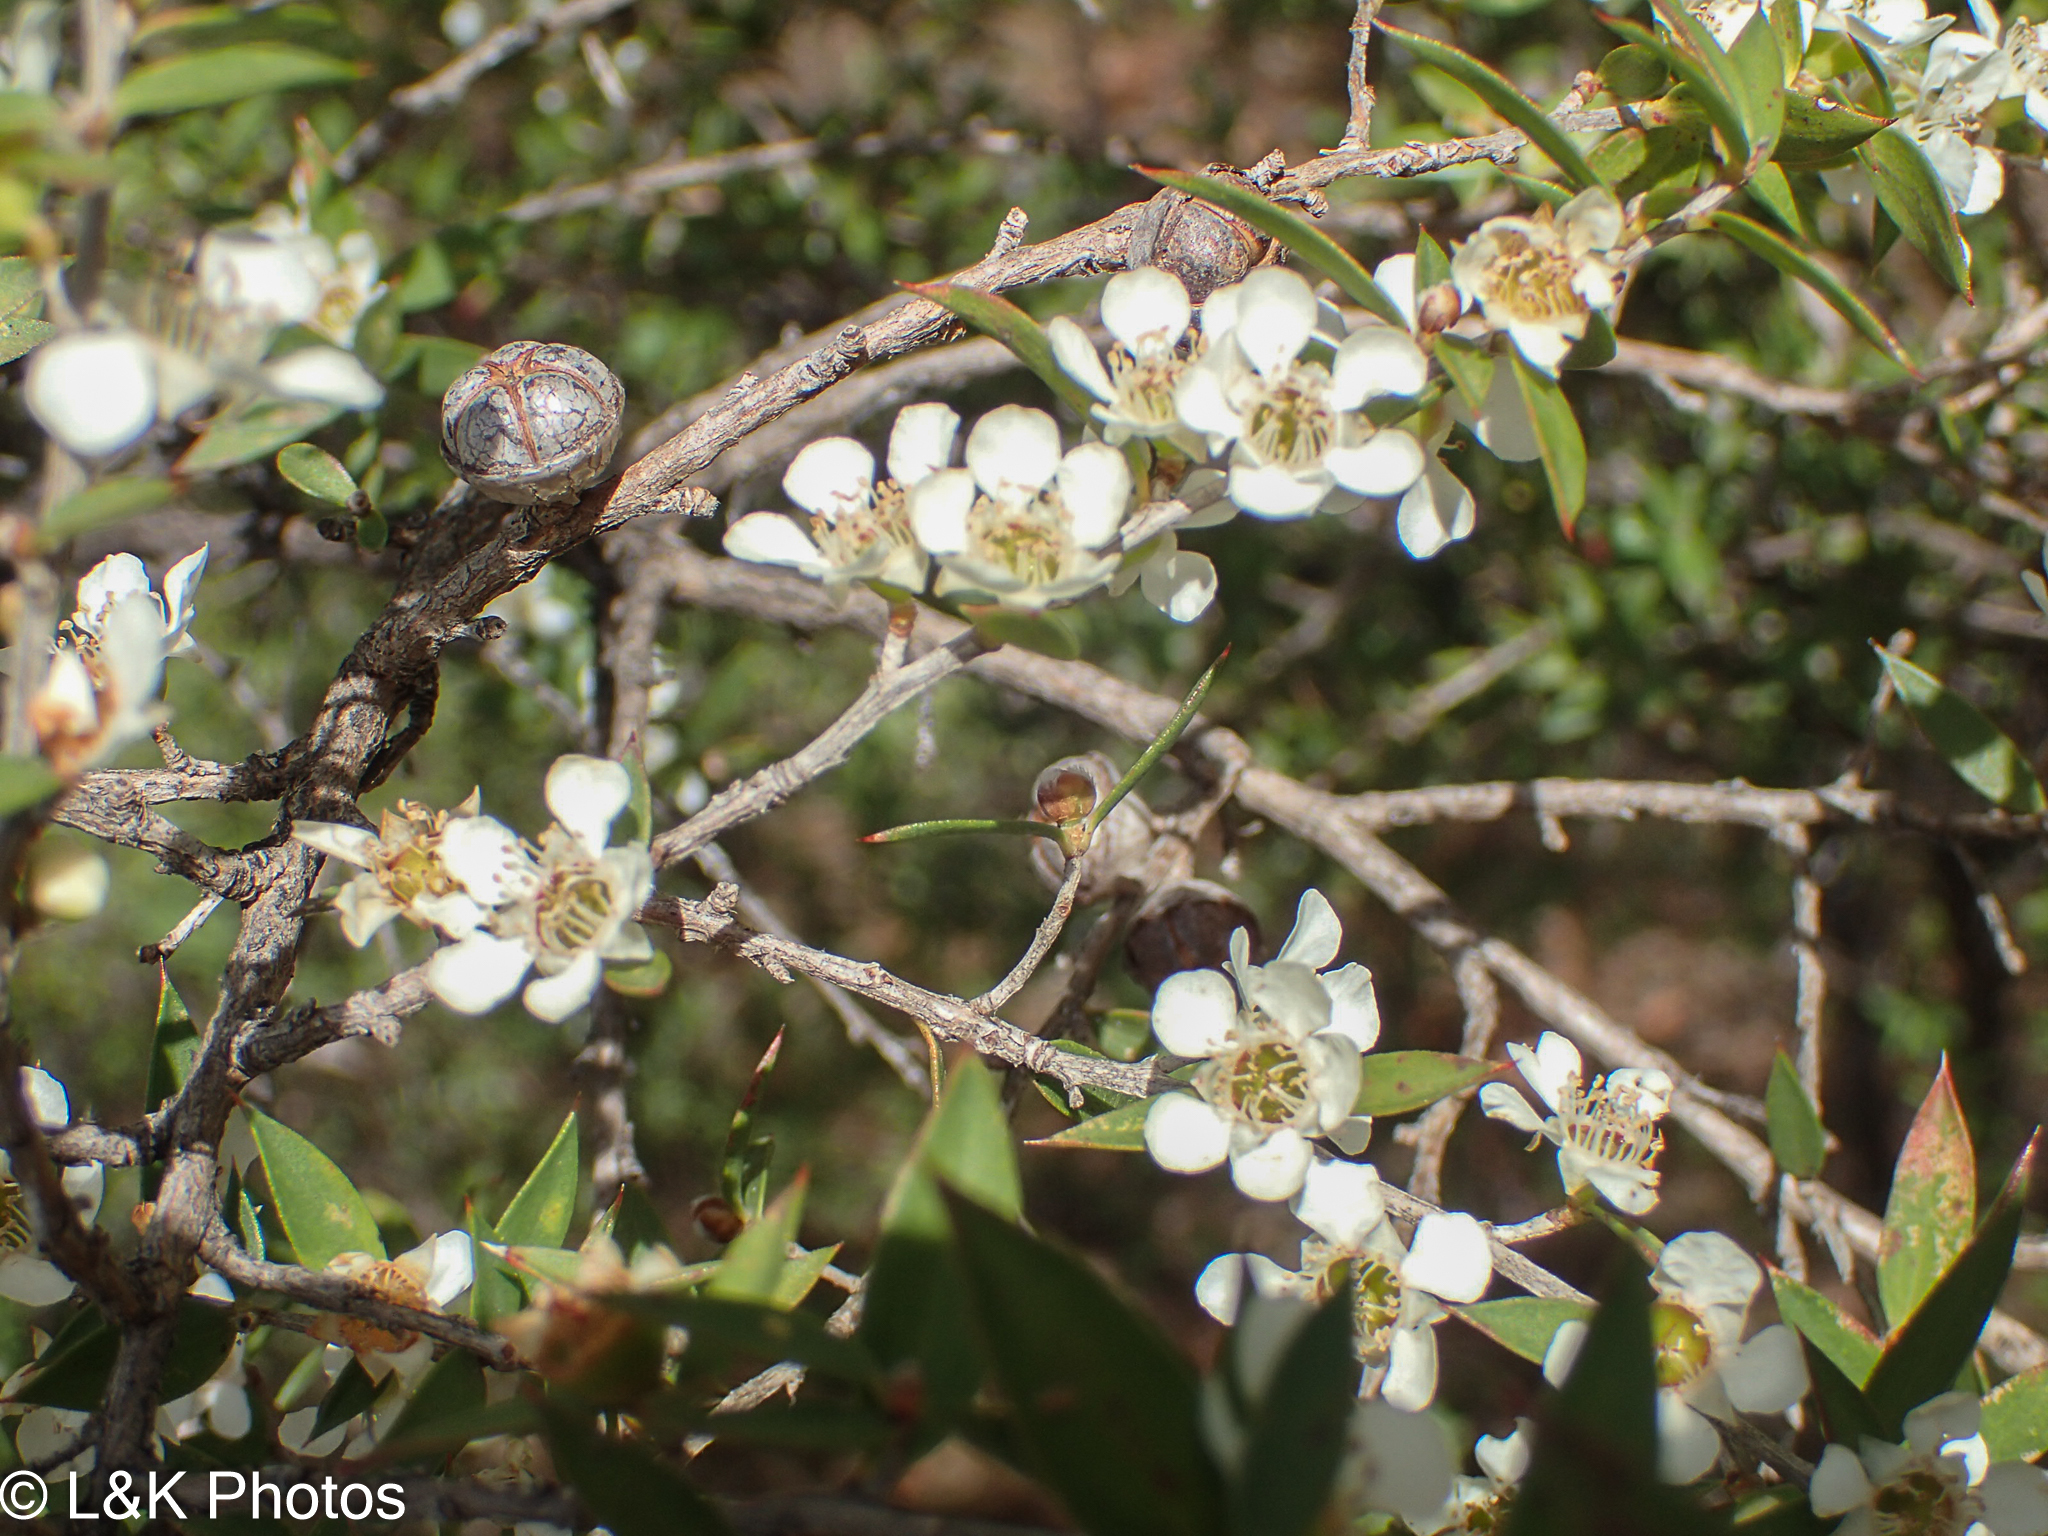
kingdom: Plantae
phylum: Tracheophyta
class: Magnoliopsida
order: Myrtales
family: Myrtaceae
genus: Leptospermum
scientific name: Leptospermum scoparium
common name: Broom tea-tree
